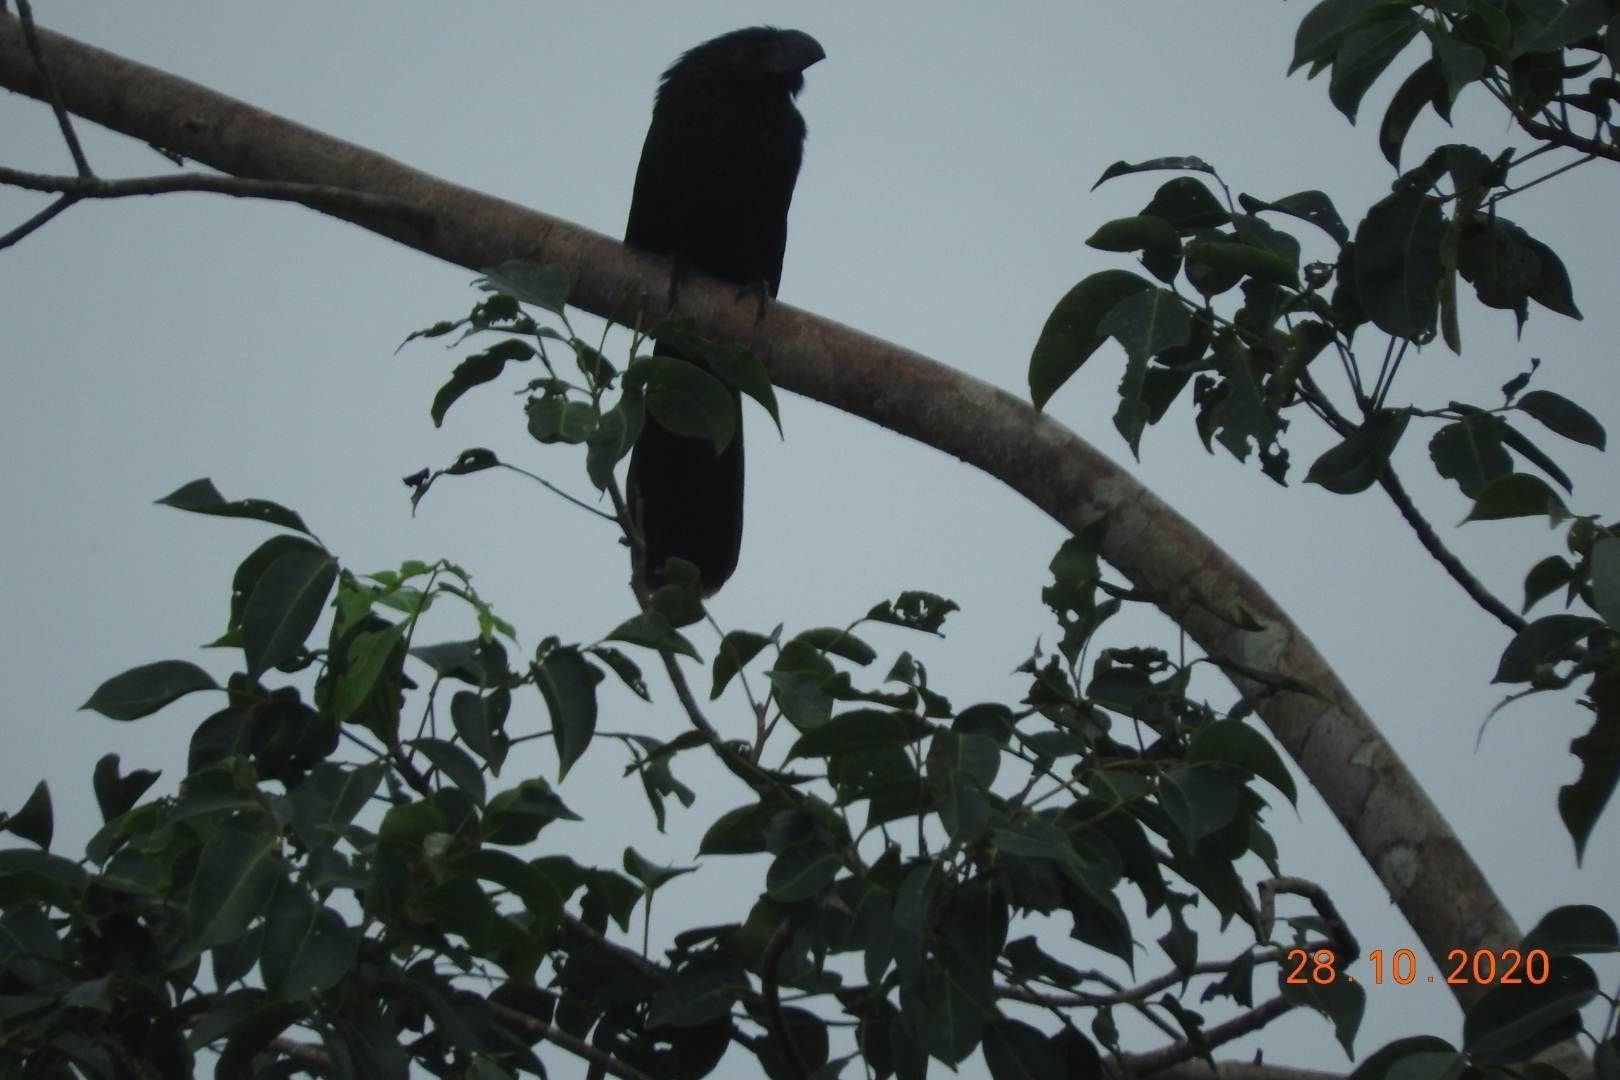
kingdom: Animalia
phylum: Chordata
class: Aves
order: Cuculiformes
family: Cuculidae
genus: Crotophaga
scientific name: Crotophaga sulcirostris
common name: Groove-billed ani
